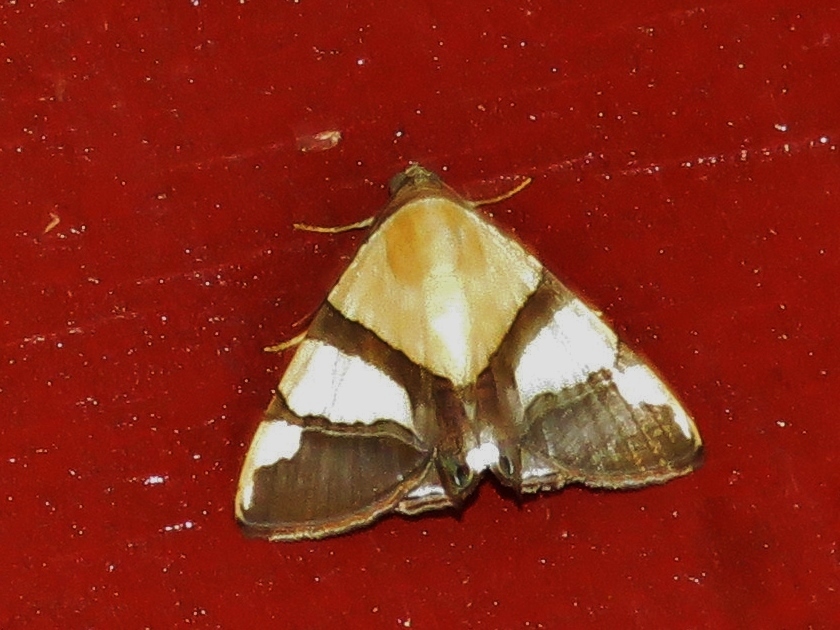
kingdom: Animalia
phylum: Arthropoda
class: Insecta
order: Lepidoptera
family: Erebidae
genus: Eulepidotis
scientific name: Eulepidotis julianata
